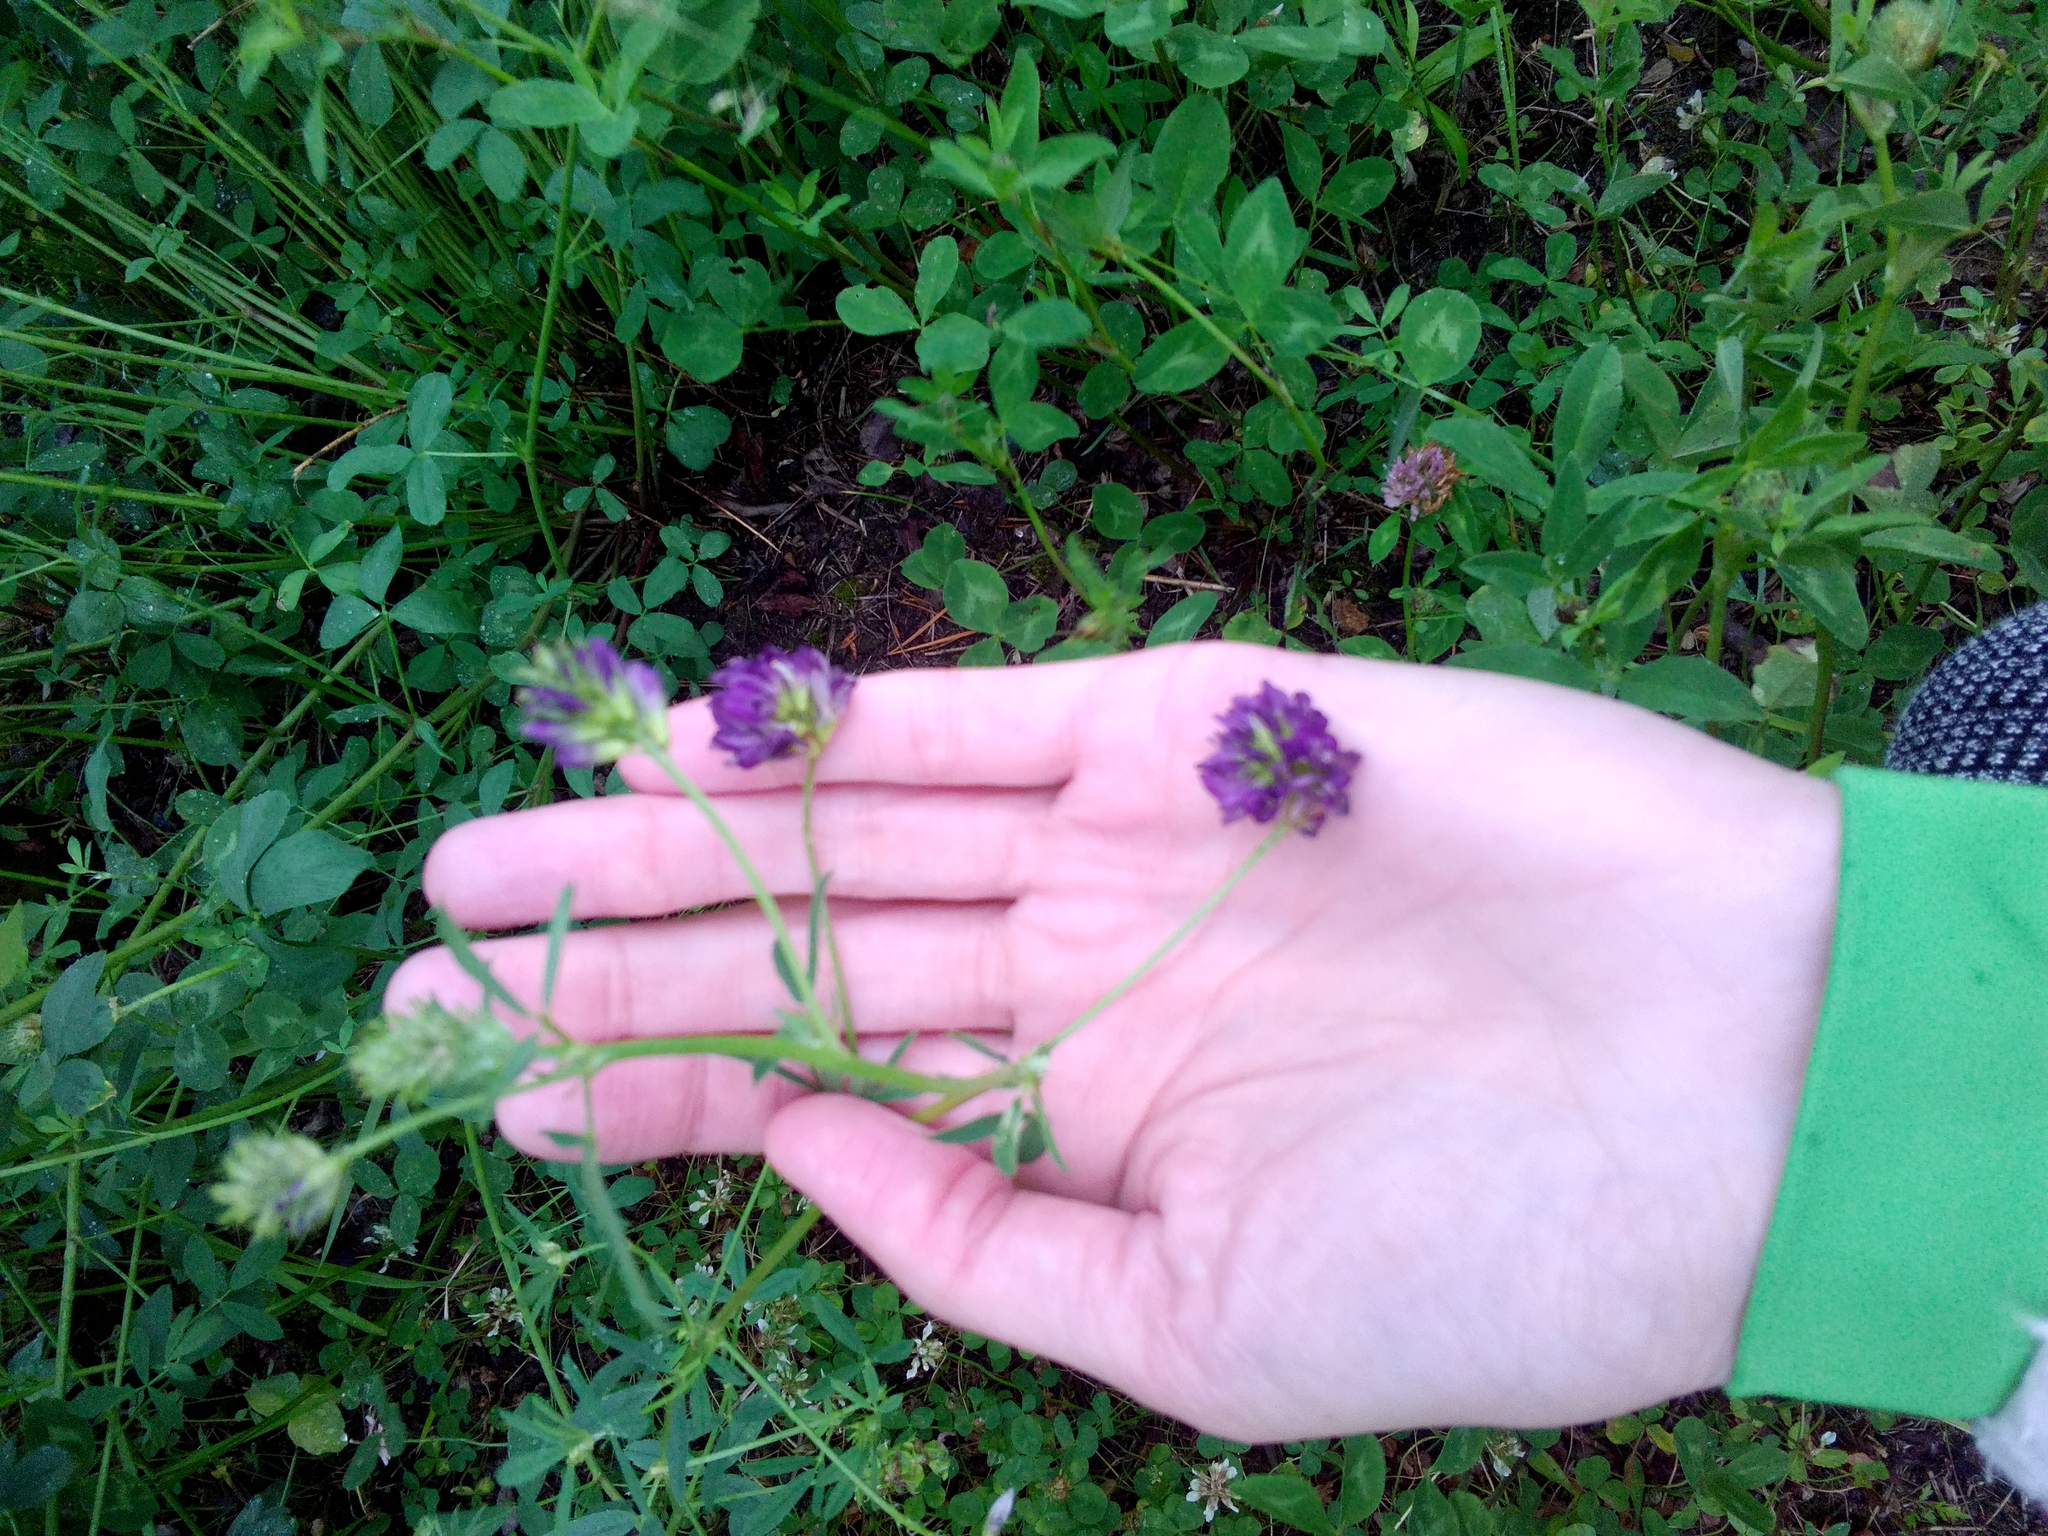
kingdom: Plantae
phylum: Tracheophyta
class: Magnoliopsida
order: Fabales
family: Fabaceae
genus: Medicago
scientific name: Medicago sativa
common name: Alfalfa
